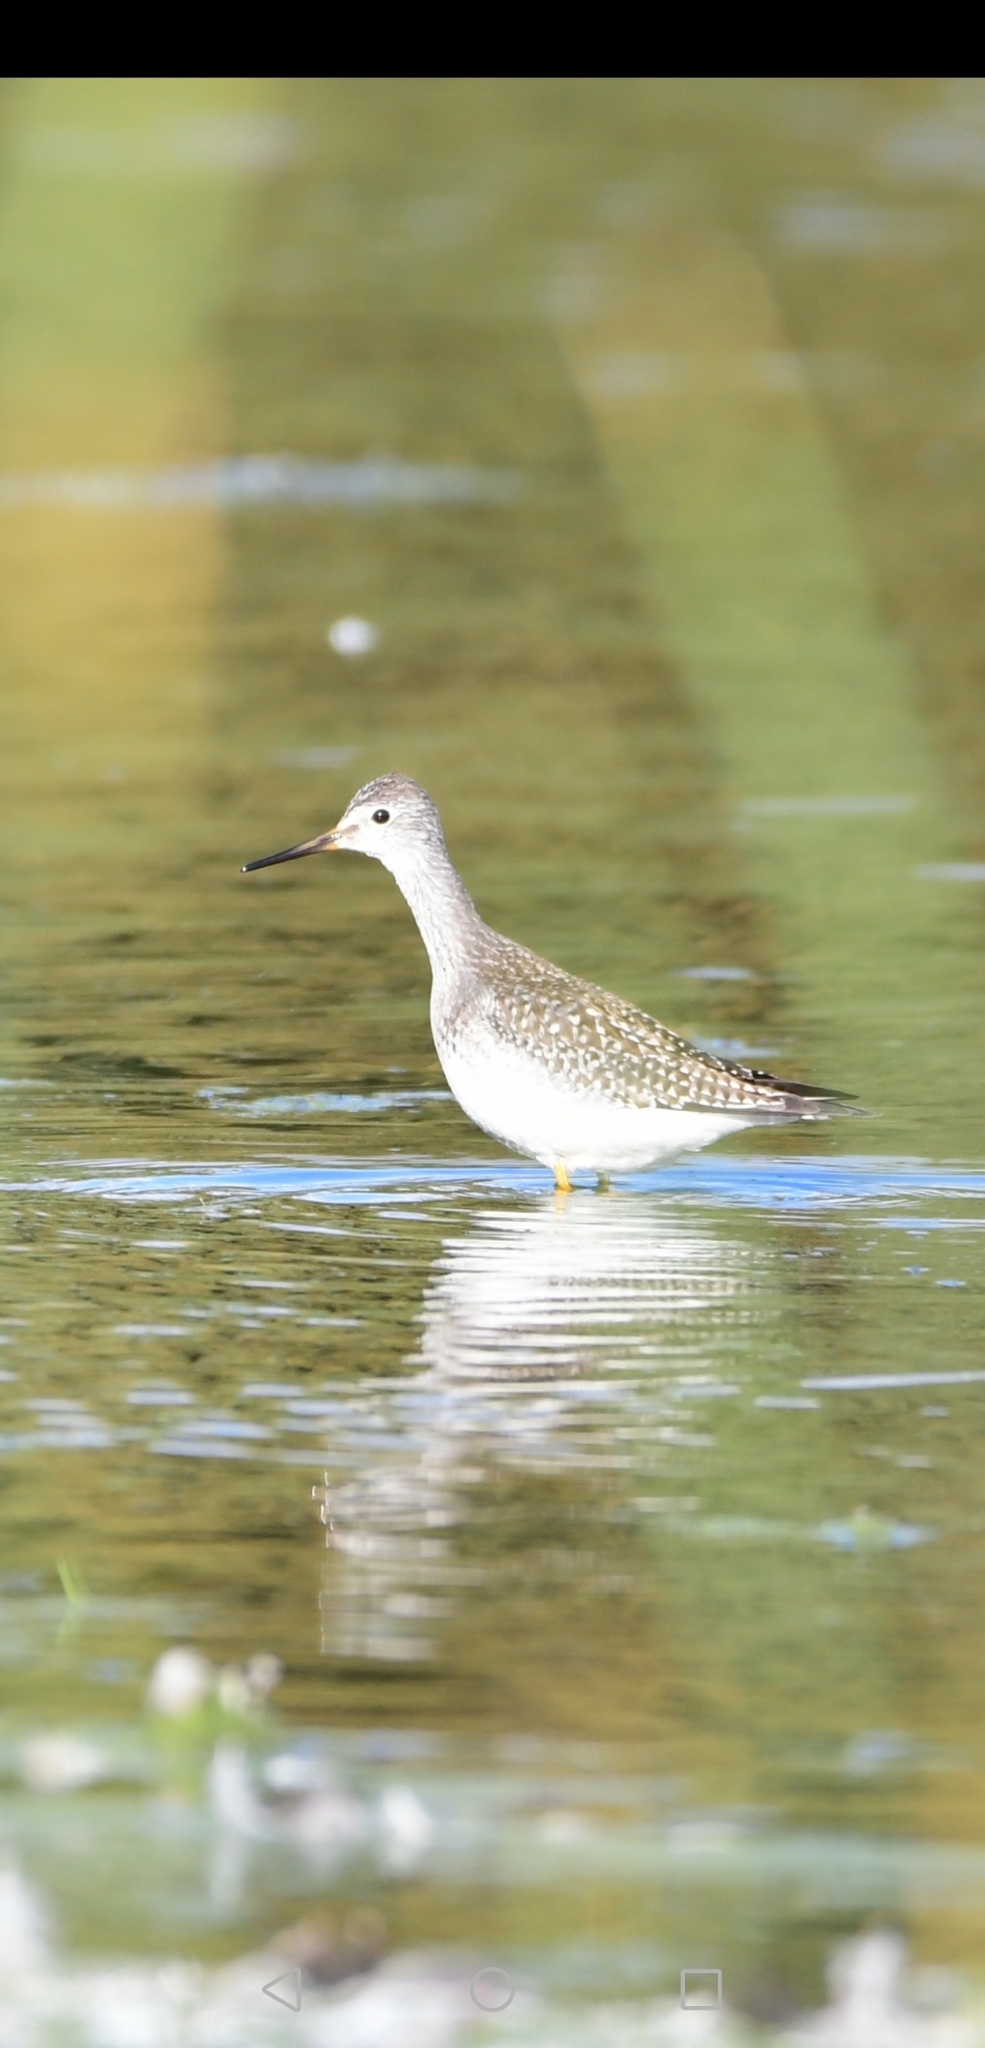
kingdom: Animalia
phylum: Chordata
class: Aves
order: Charadriiformes
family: Scolopacidae
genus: Tringa
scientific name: Tringa flavipes
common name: Lesser yellowlegs
